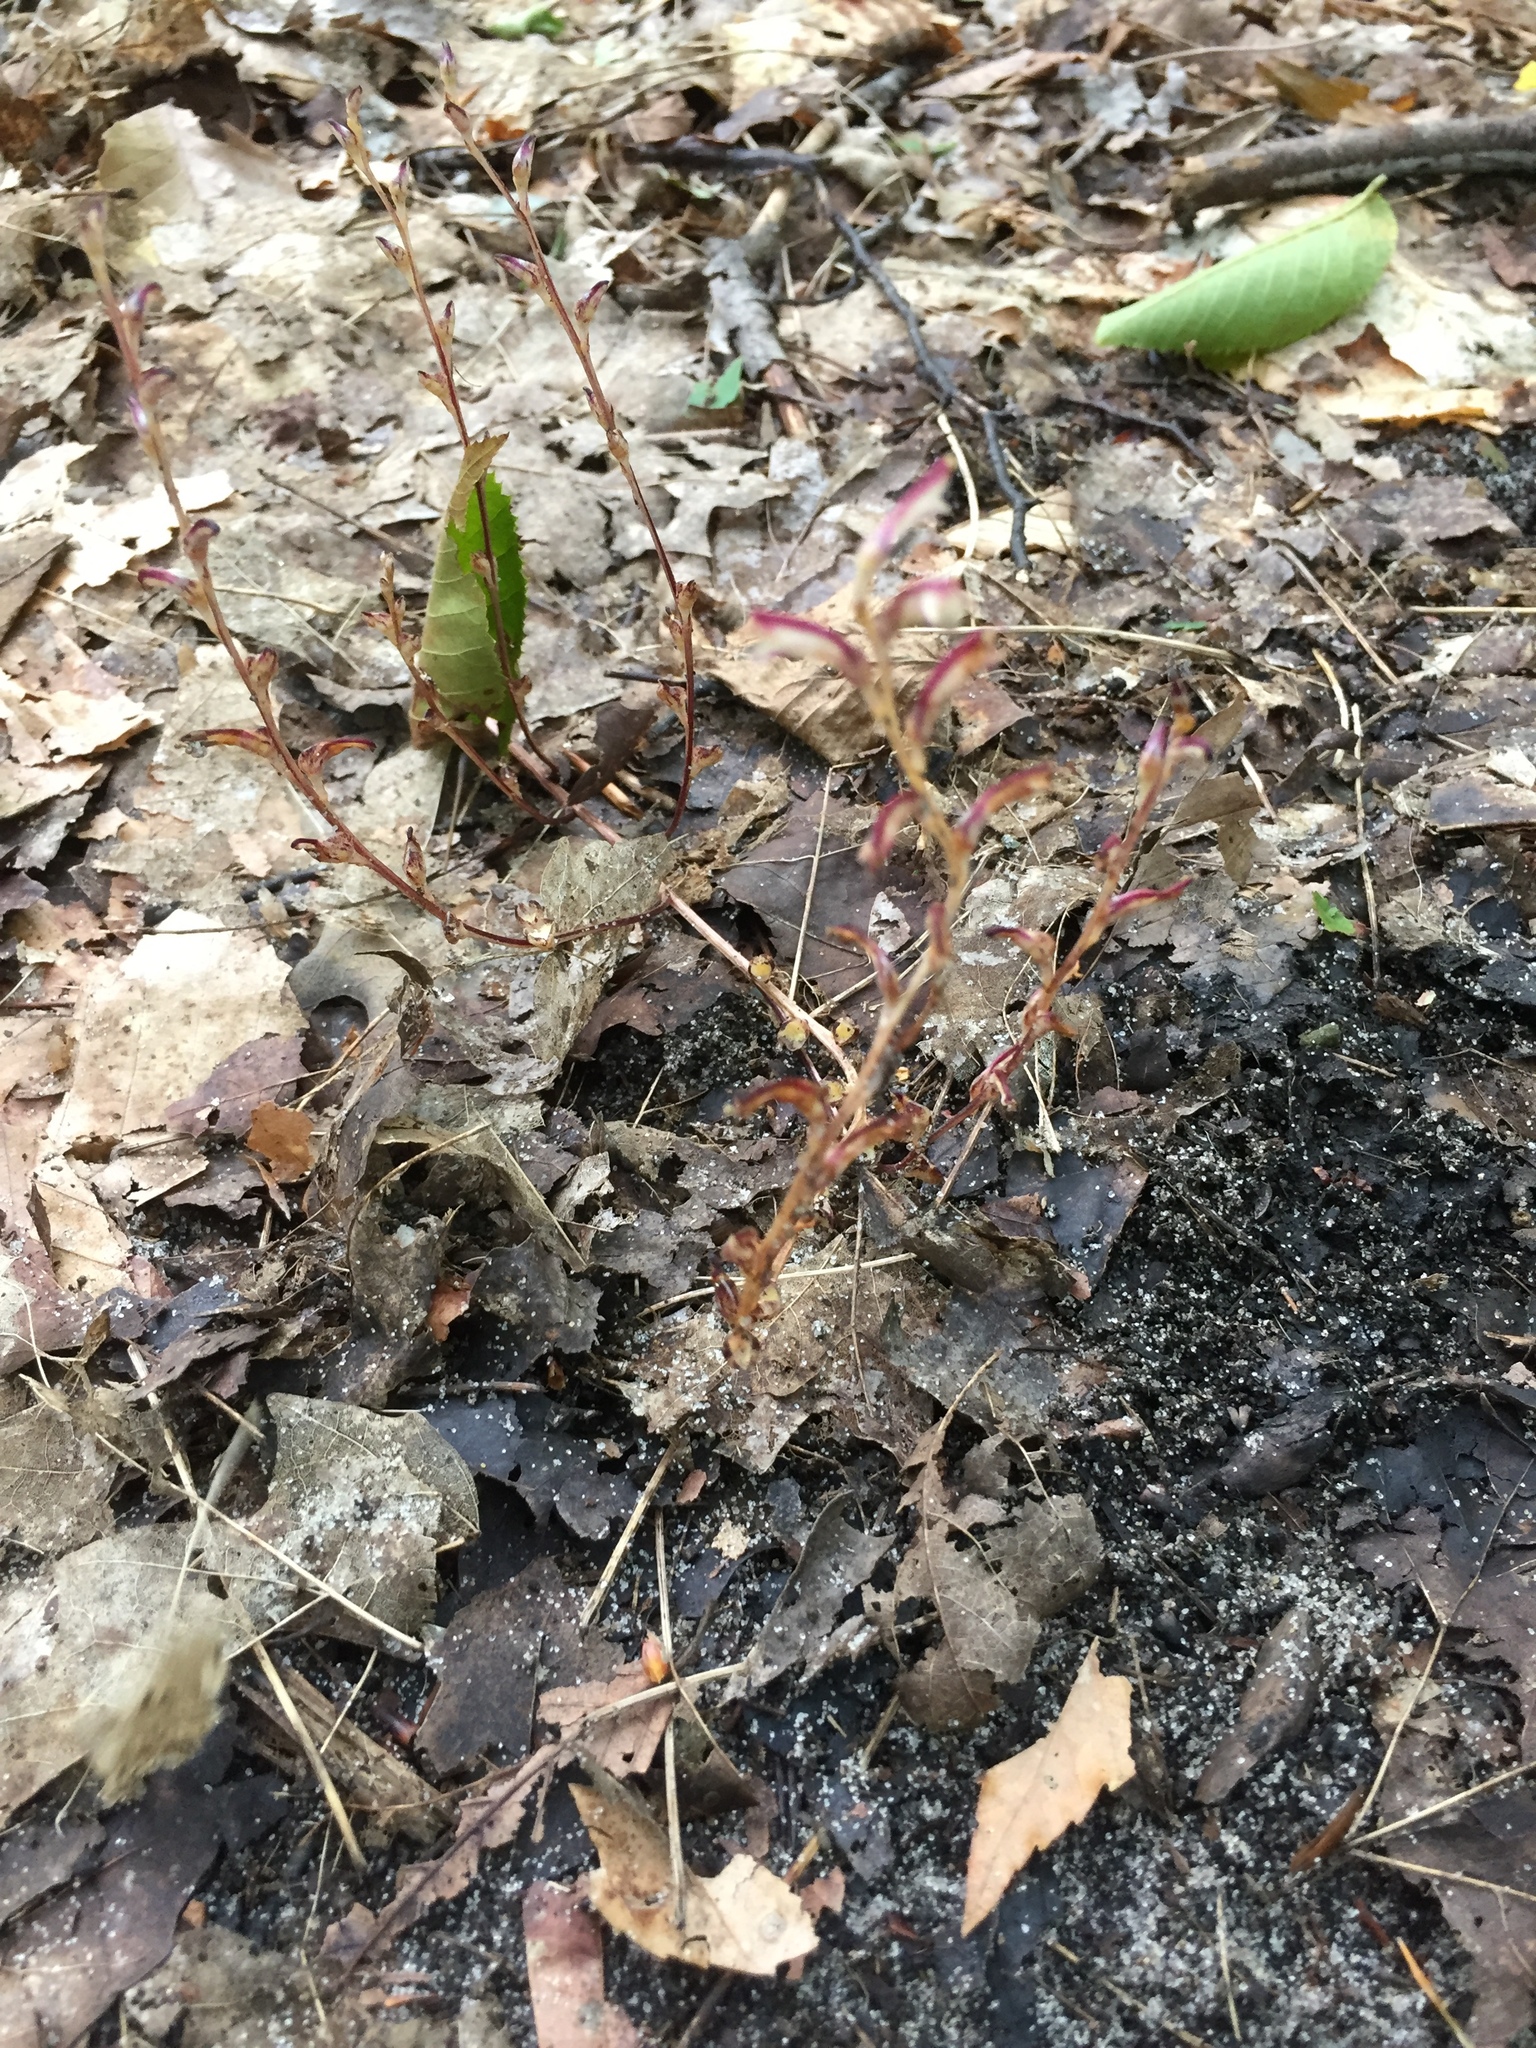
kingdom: Plantae
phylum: Tracheophyta
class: Magnoliopsida
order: Lamiales
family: Orobanchaceae
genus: Epifagus
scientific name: Epifagus virginiana
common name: Beechdrops
